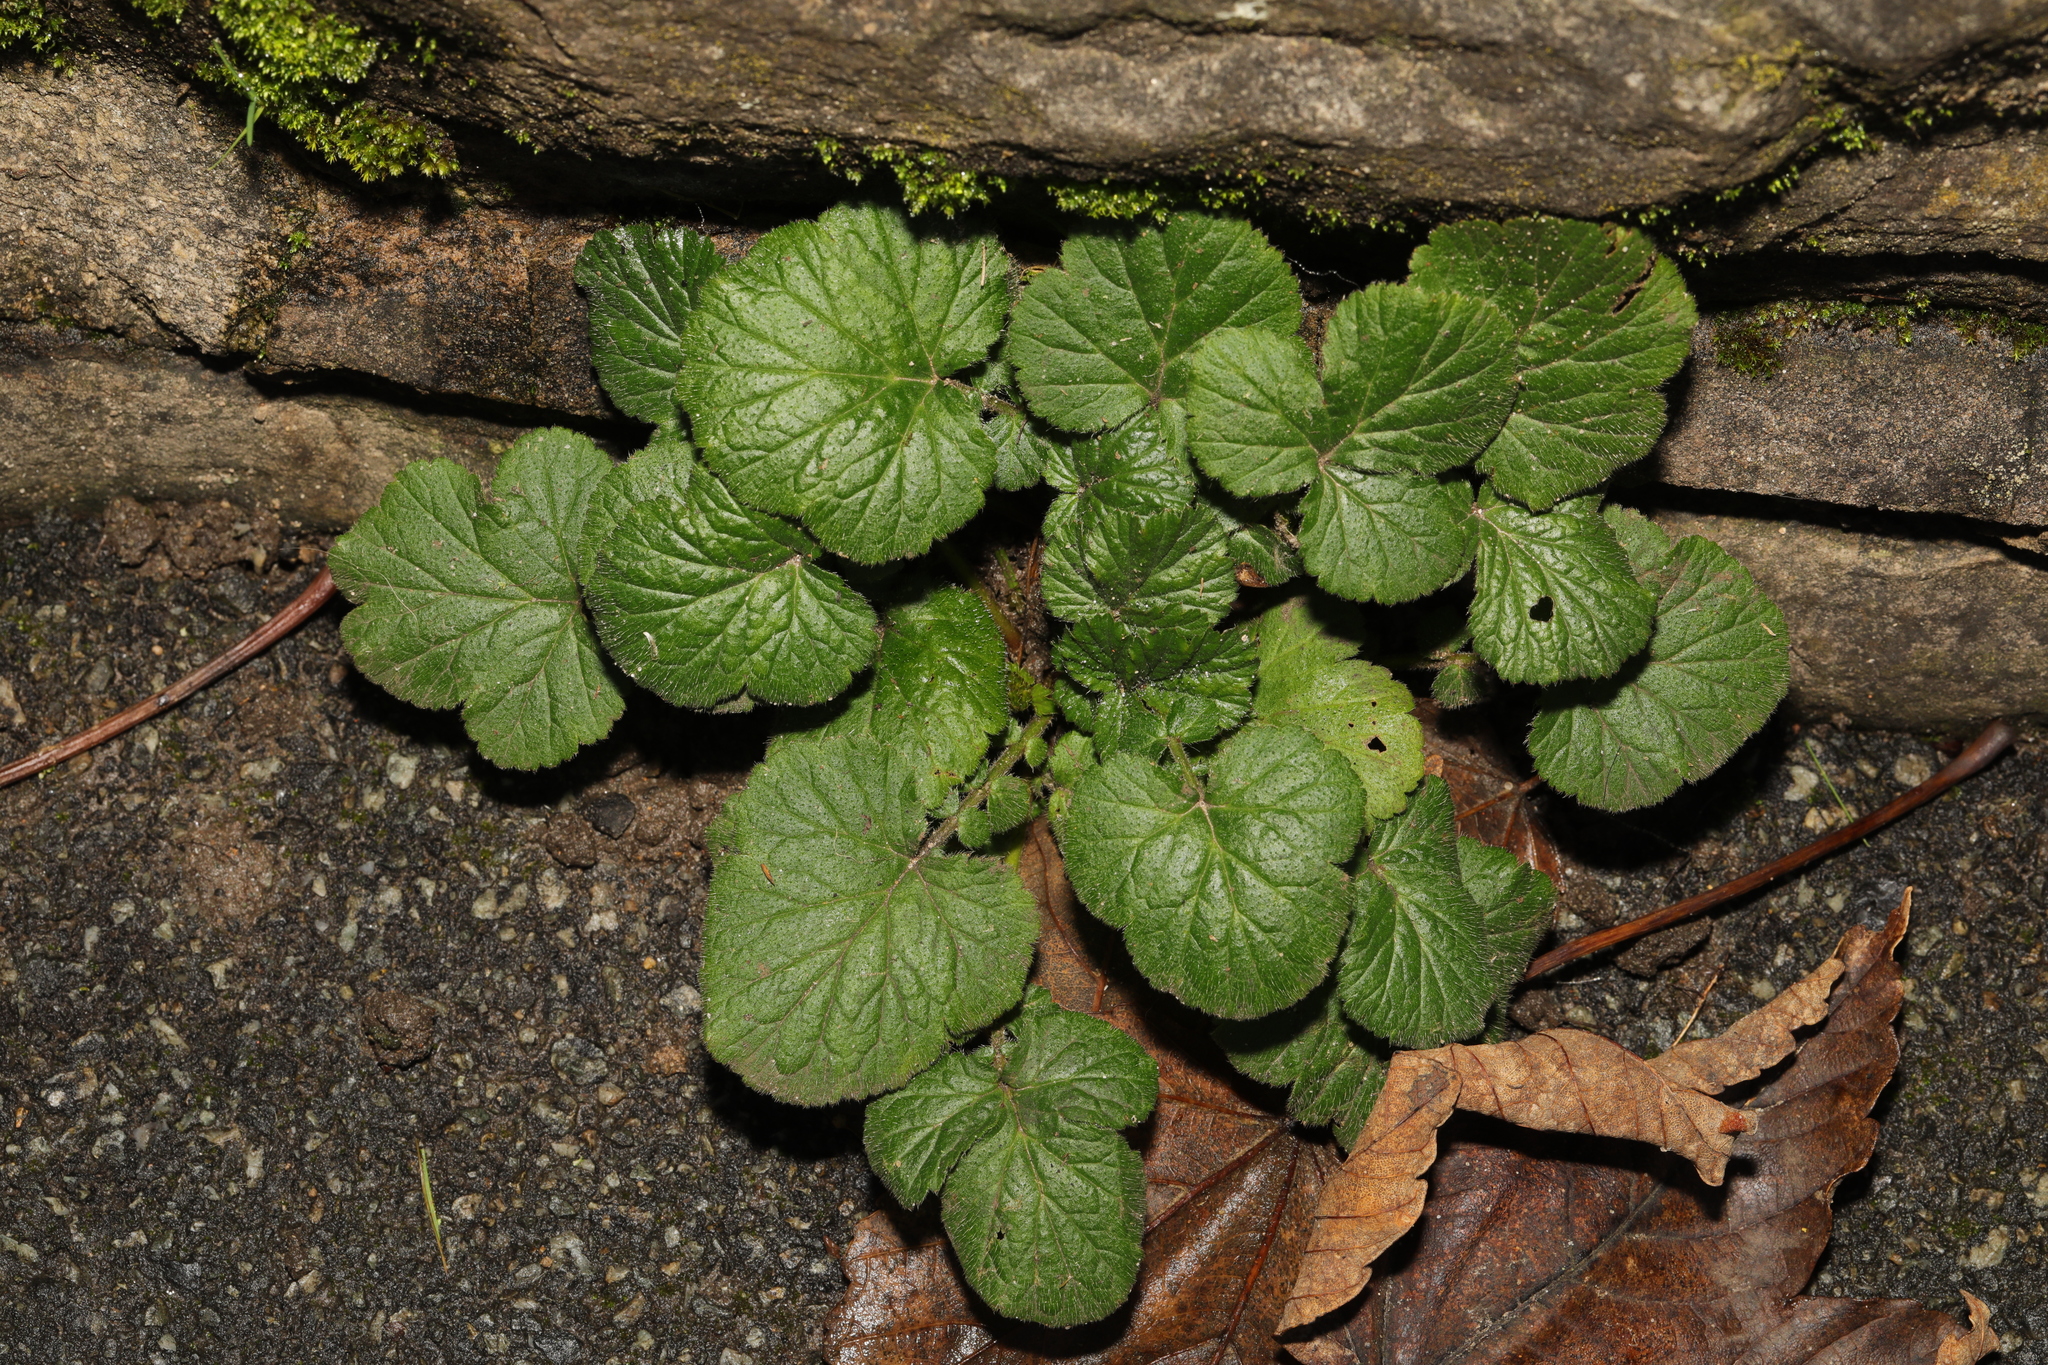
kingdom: Plantae
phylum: Tracheophyta
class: Magnoliopsida
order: Rosales
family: Rosaceae
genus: Geum
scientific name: Geum urbanum
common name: Wood avens
